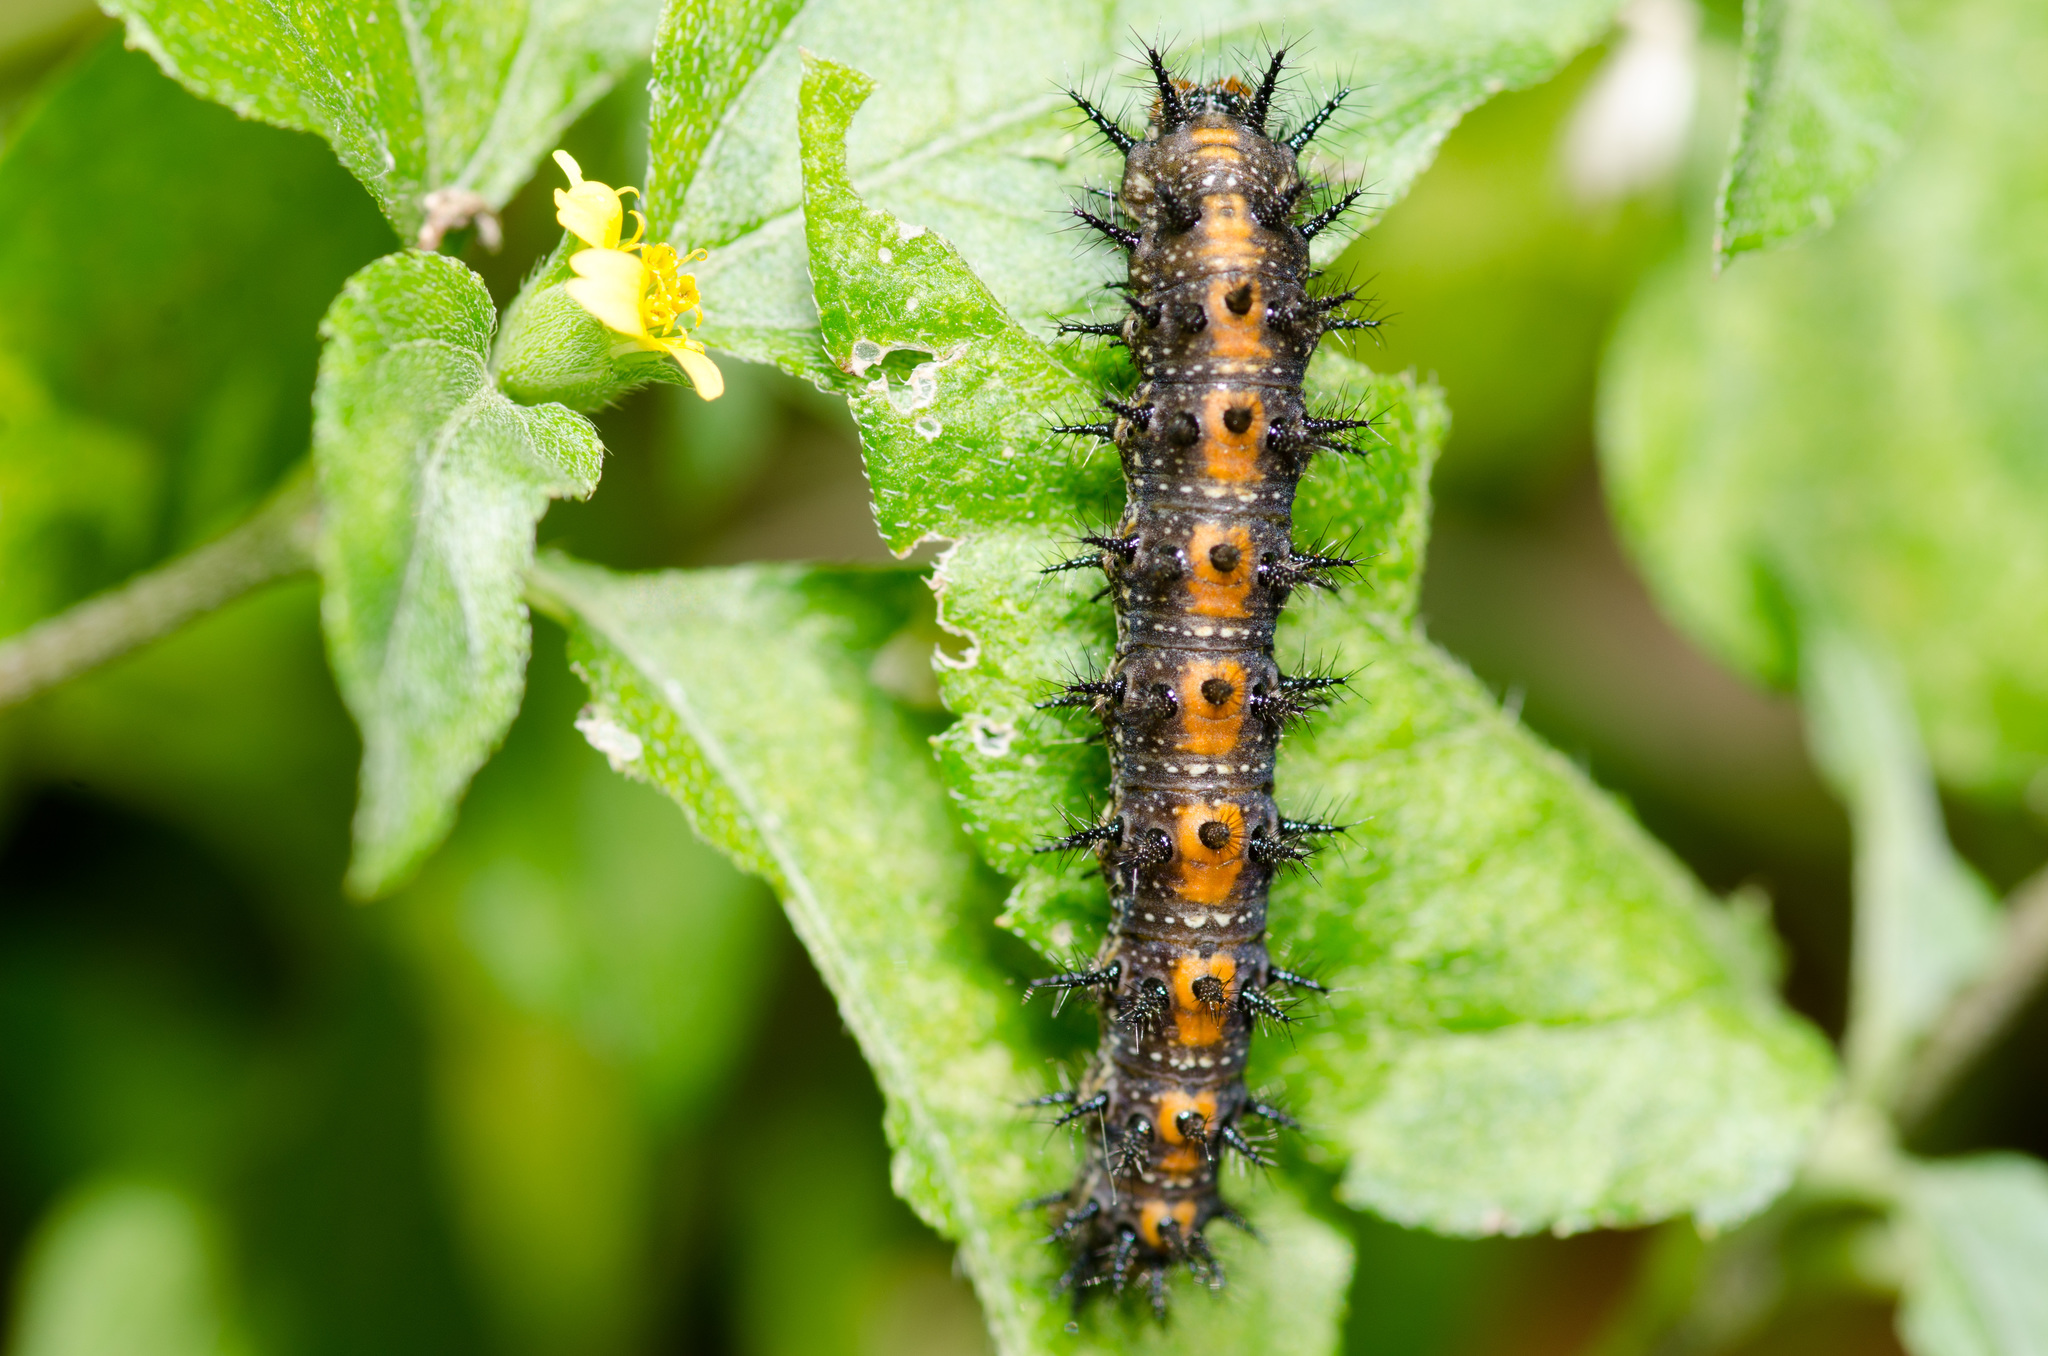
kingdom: Animalia
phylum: Arthropoda
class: Insecta
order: Lepidoptera
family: Nymphalidae
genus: Chlosyne
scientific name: Chlosyne lacinia
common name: Bordered patch
